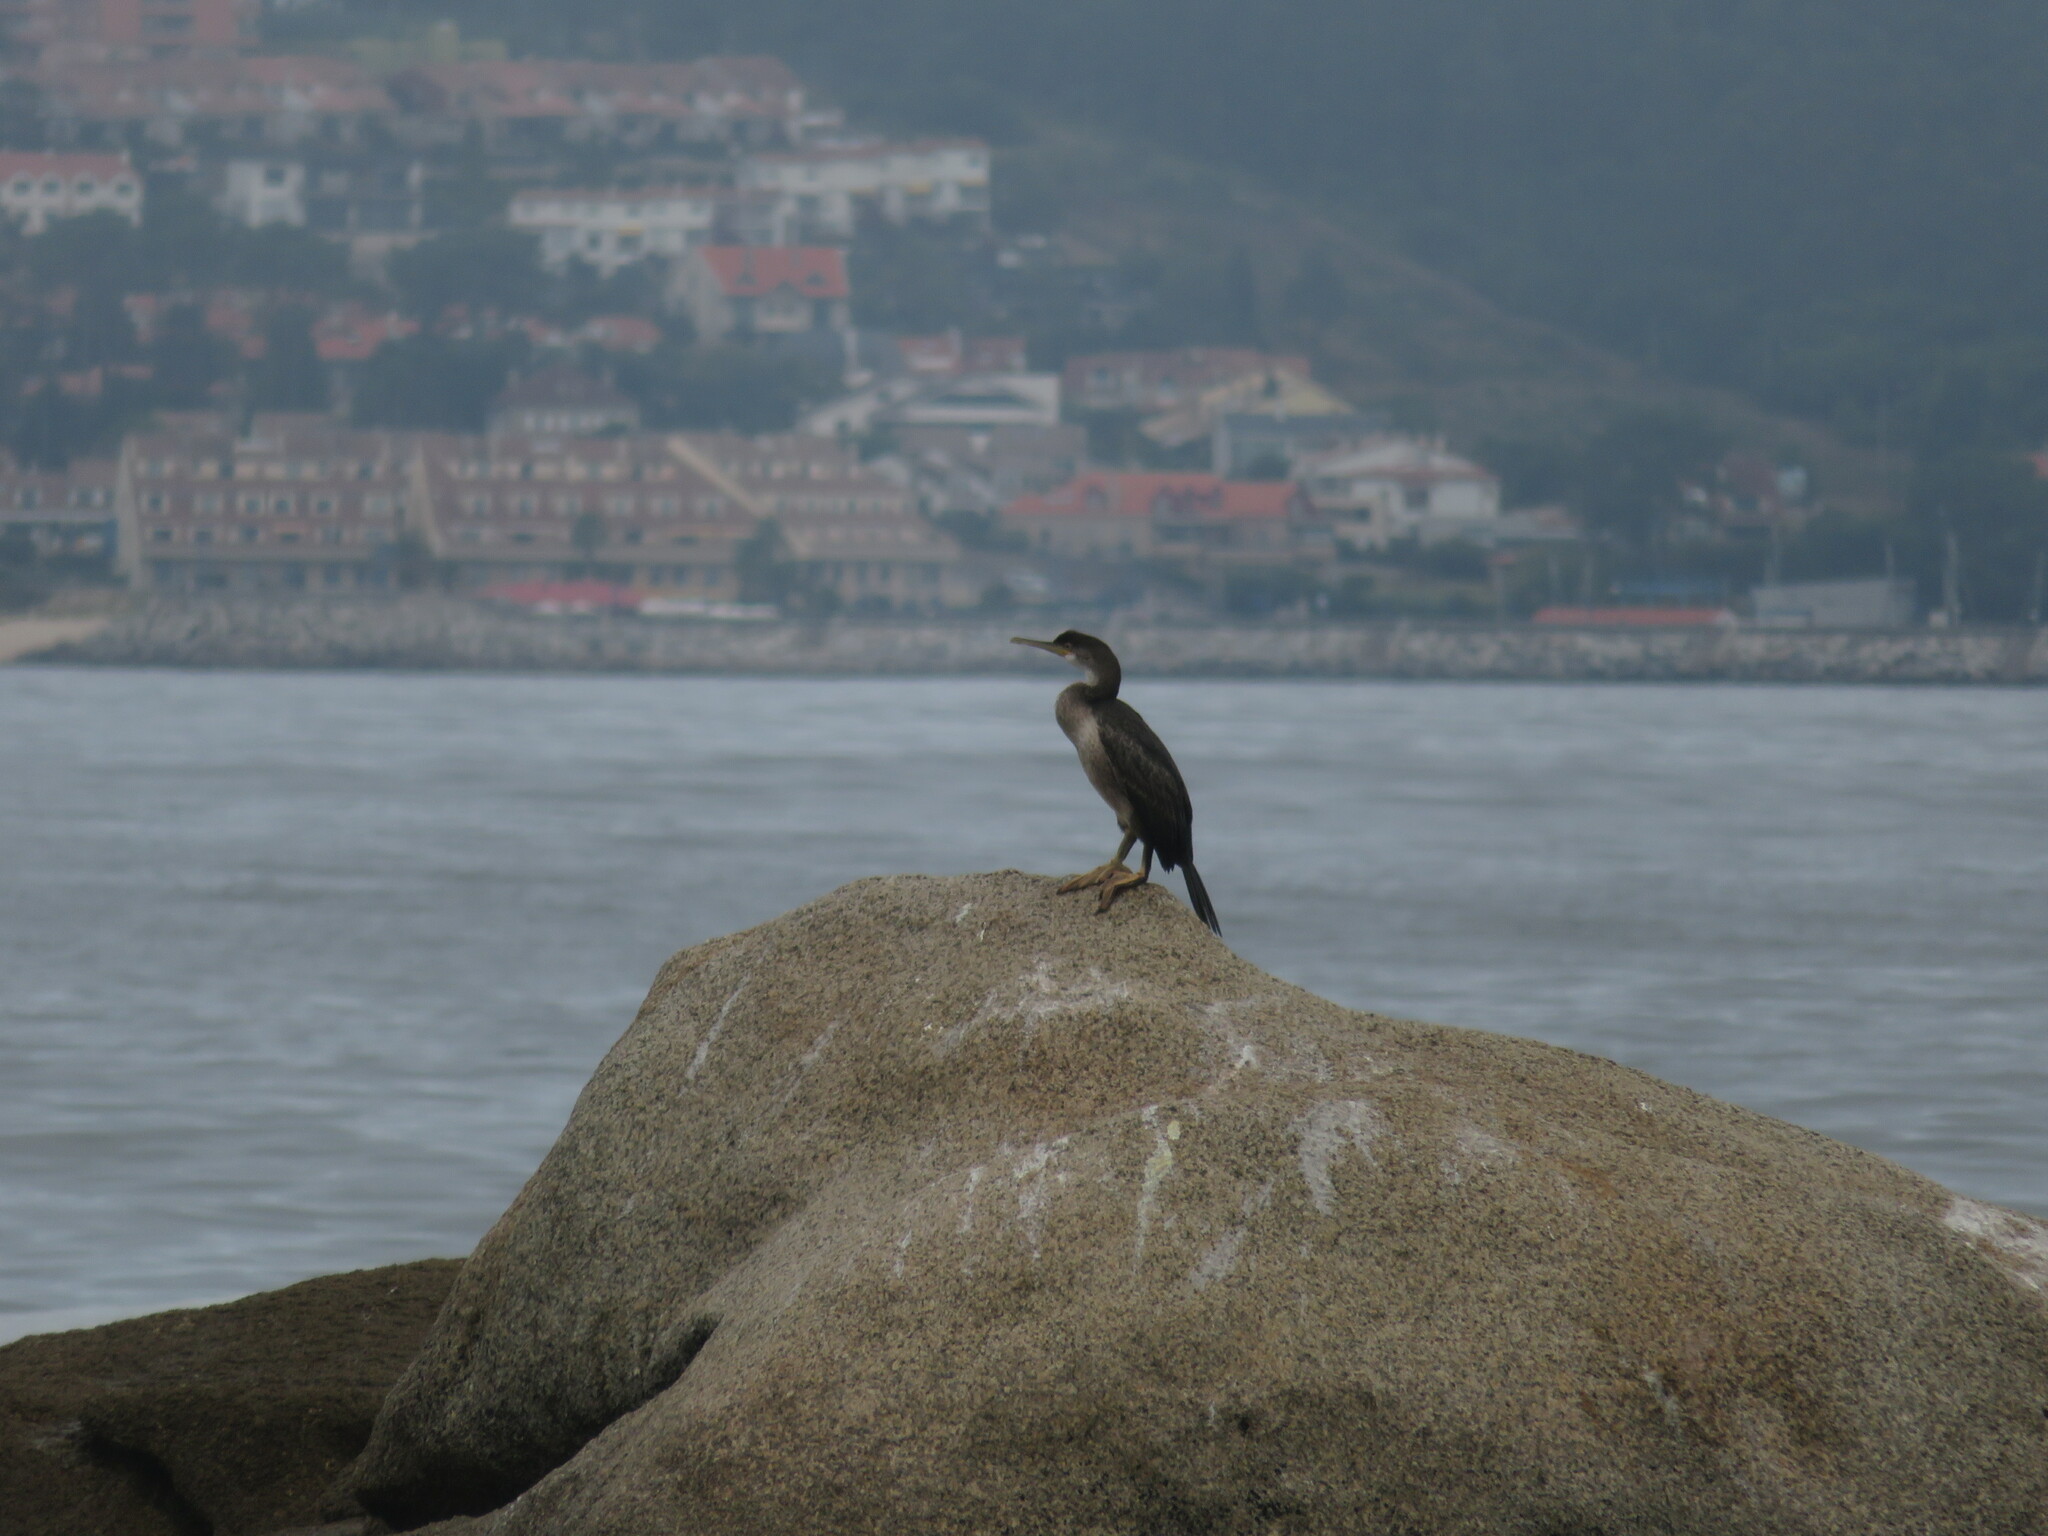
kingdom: Animalia
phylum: Chordata
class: Aves
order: Suliformes
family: Phalacrocoracidae
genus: Phalacrocorax
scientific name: Phalacrocorax aristotelis
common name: European shag
